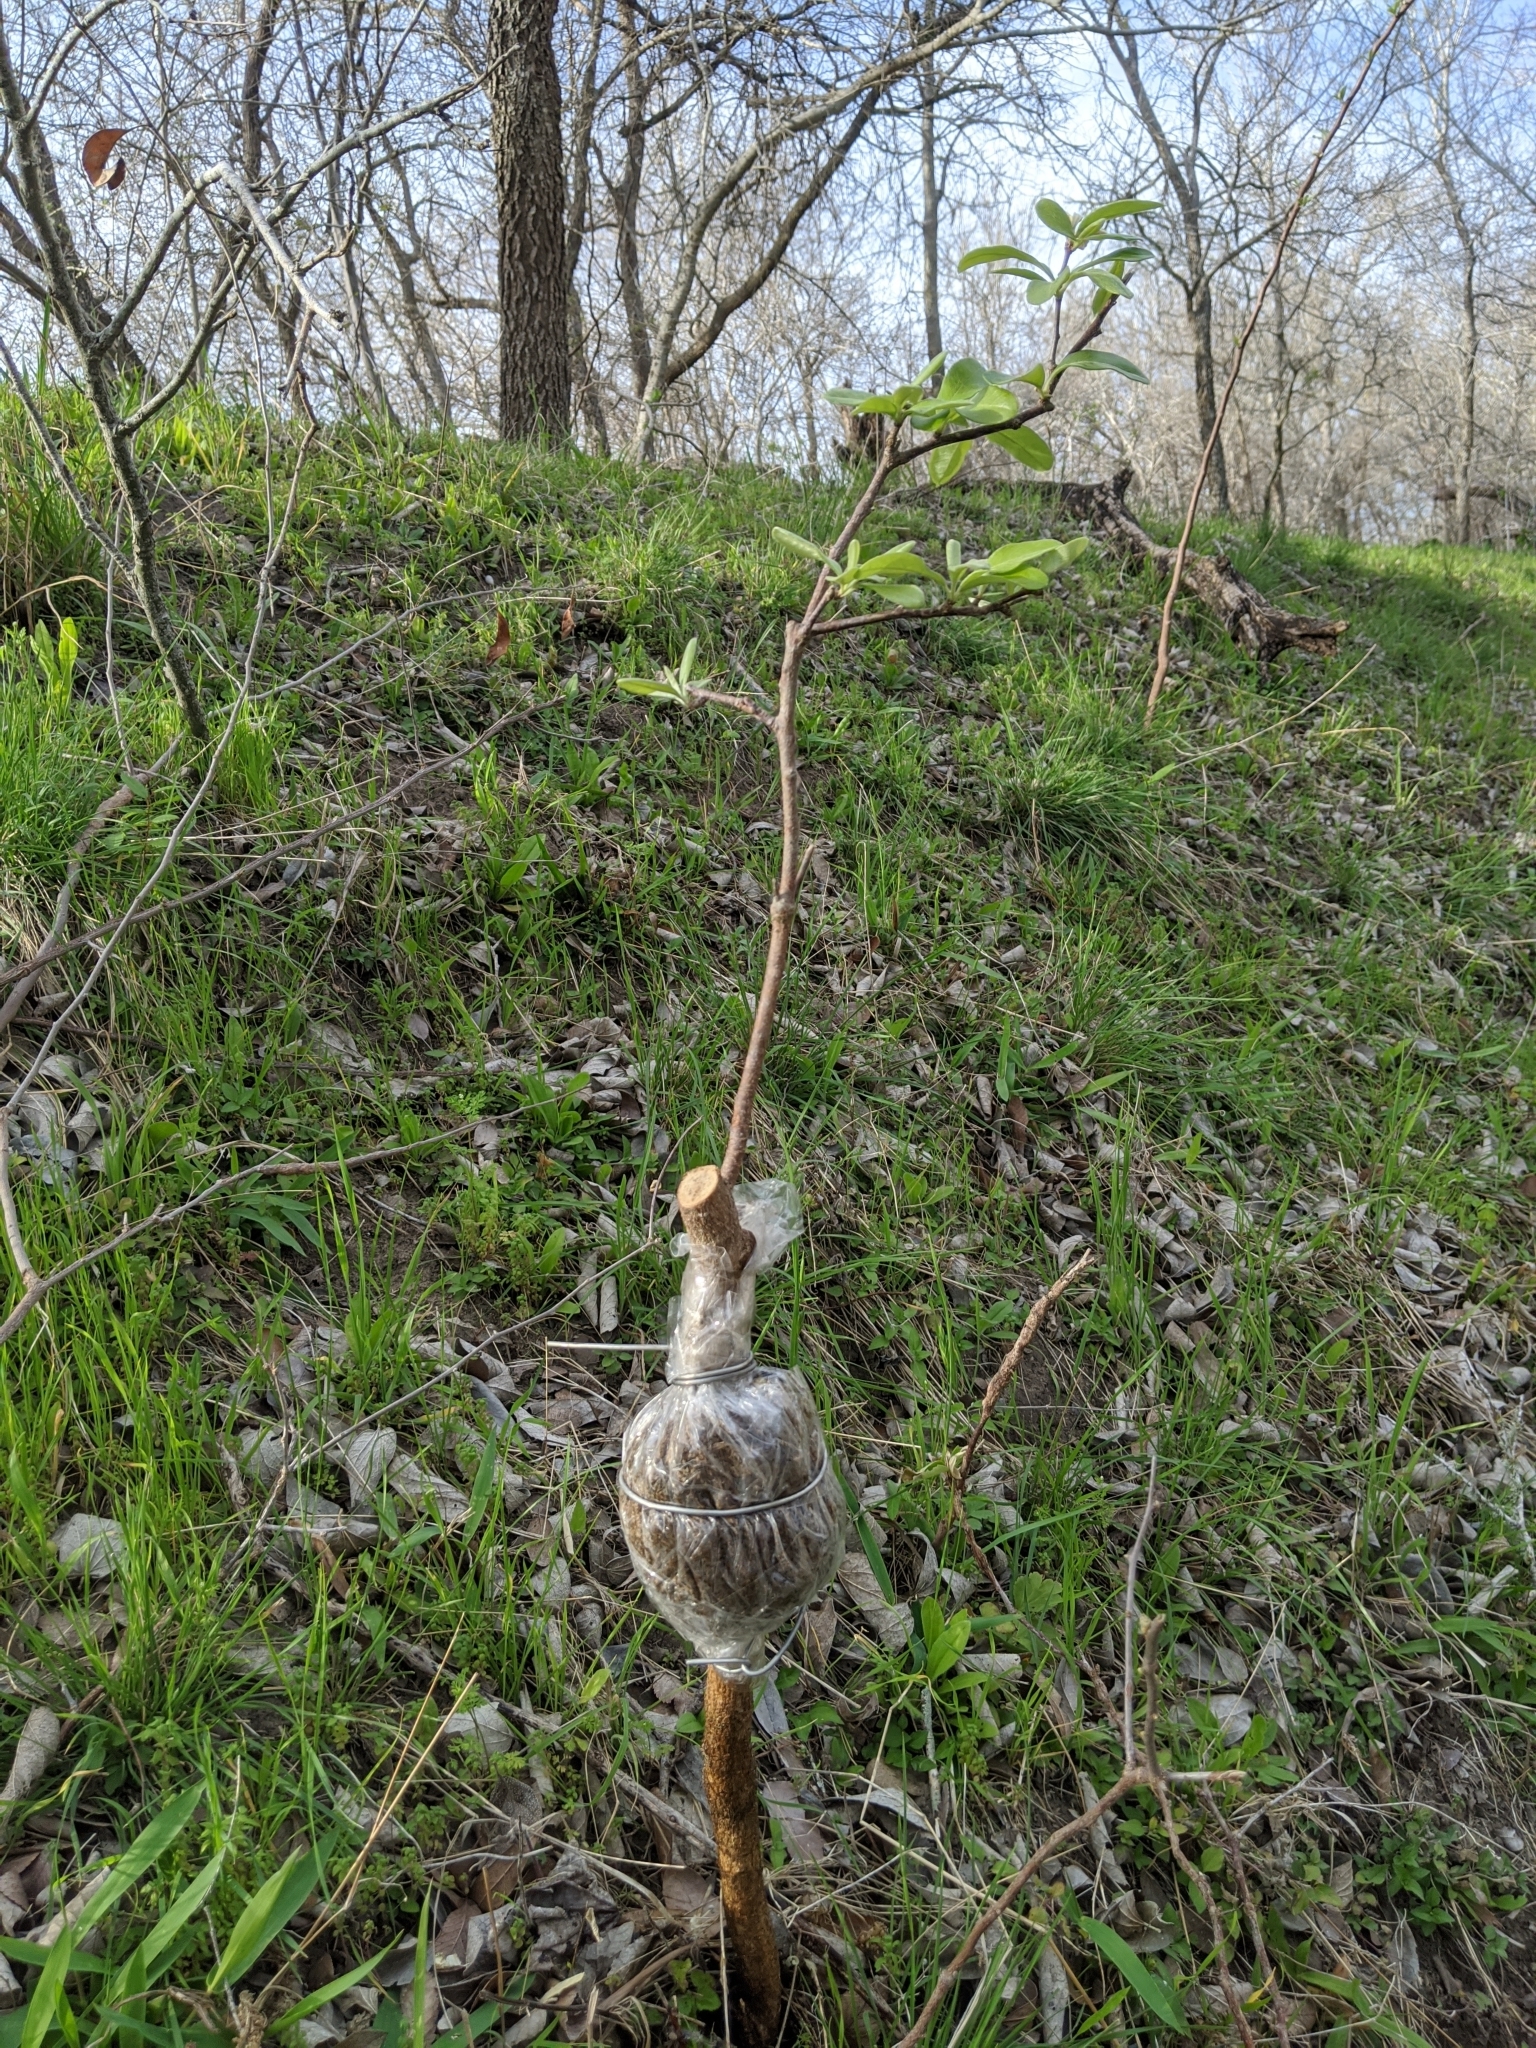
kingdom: Plantae
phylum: Tracheophyta
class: Magnoliopsida
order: Ericales
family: Sapotaceae
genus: Sideroxylon
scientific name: Sideroxylon lanuginosum
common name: Chittamwood
